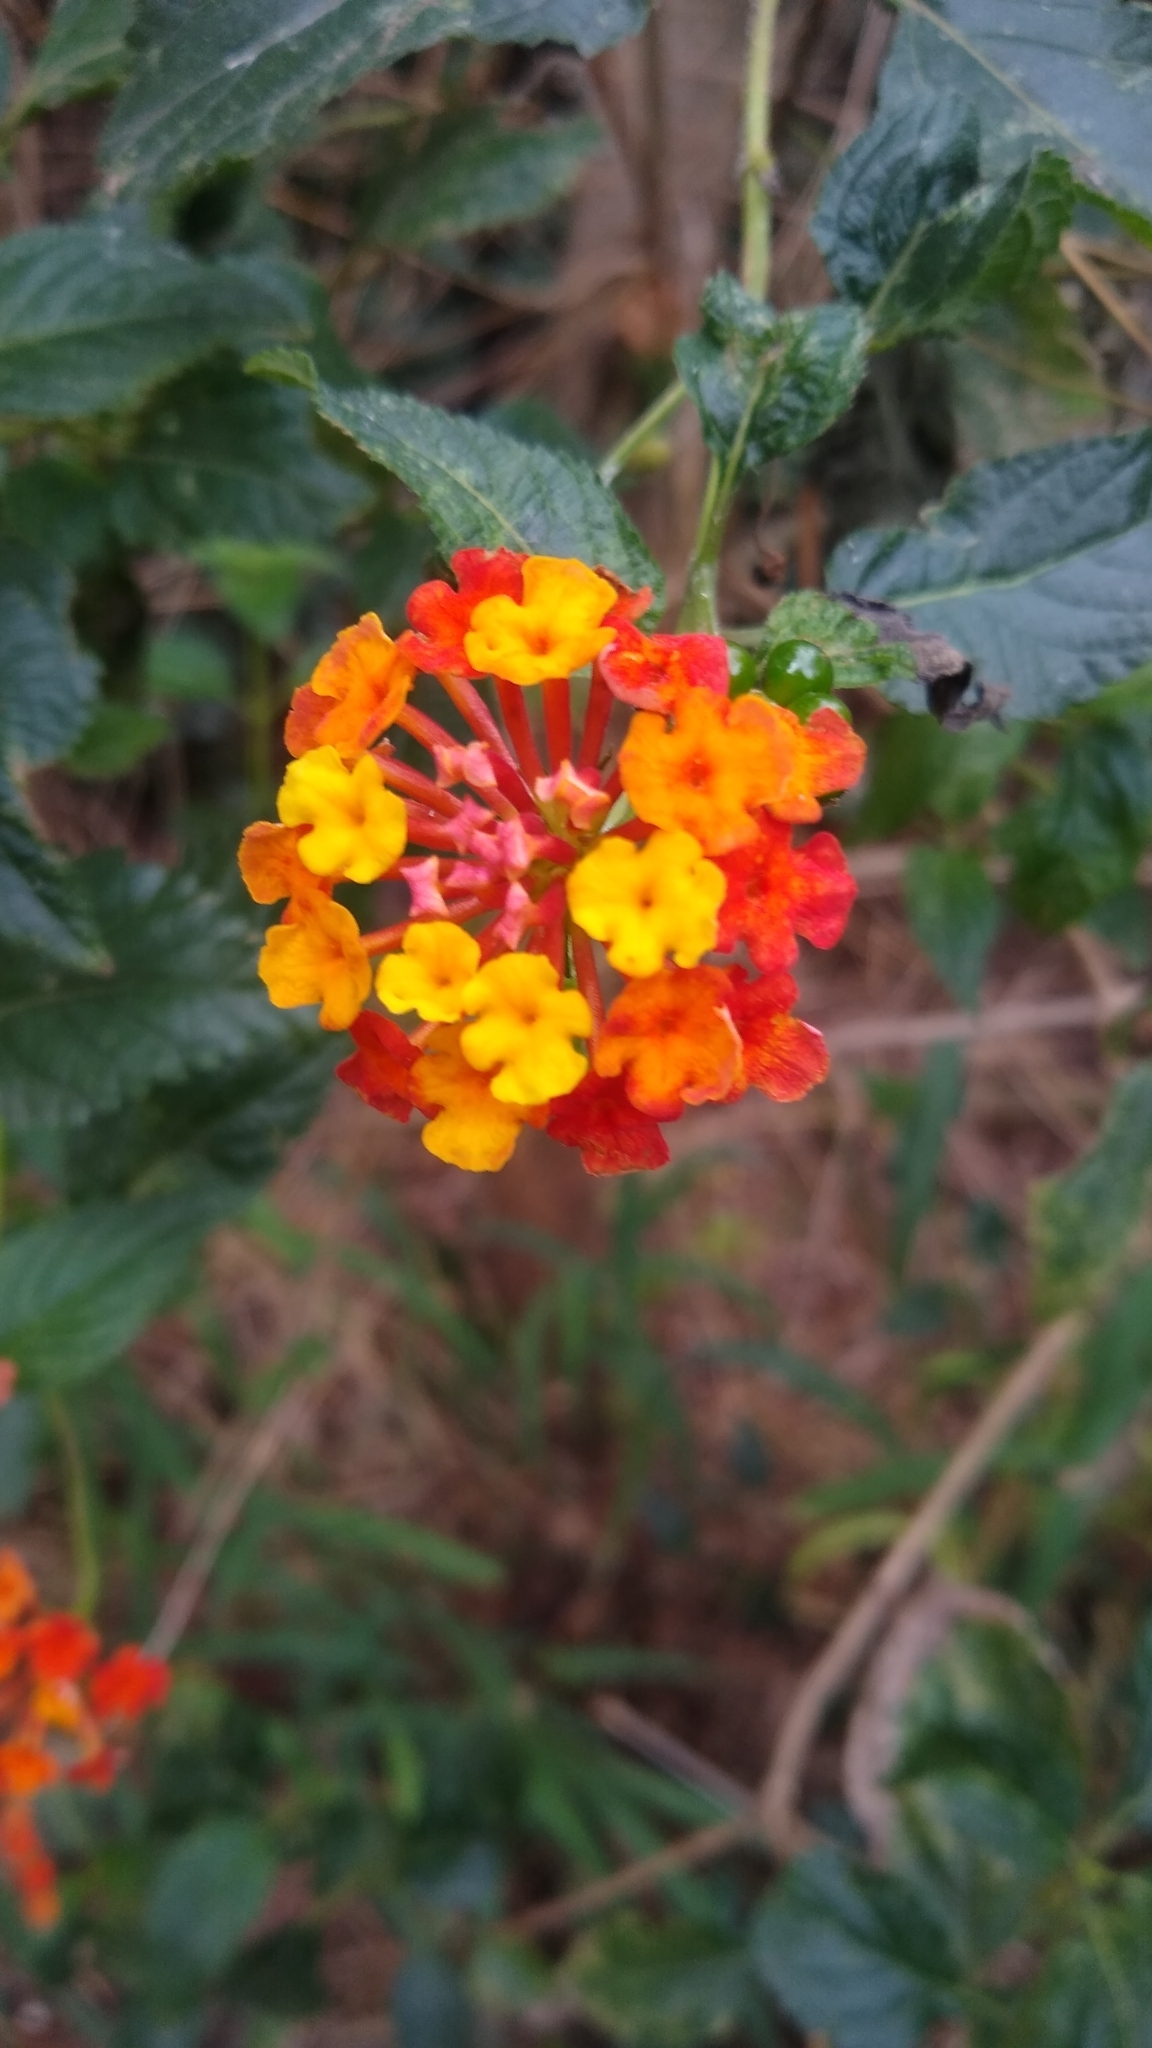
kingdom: Plantae
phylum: Tracheophyta
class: Magnoliopsida
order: Lamiales
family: Verbenaceae
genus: Lantana
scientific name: Lantana camara
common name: Lantana
